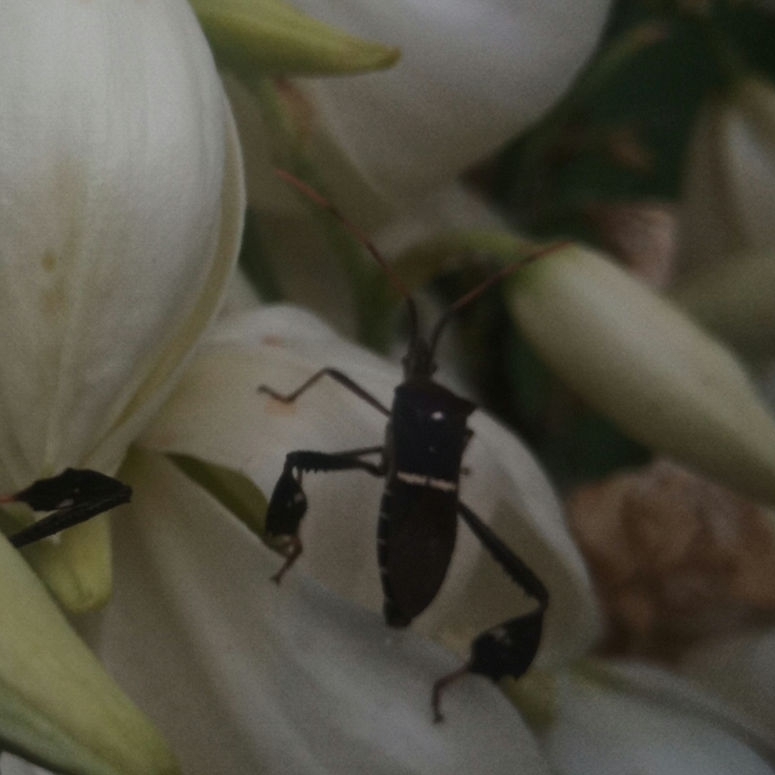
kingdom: Animalia
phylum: Arthropoda
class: Insecta
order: Hemiptera
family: Coreidae
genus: Leptoglossus
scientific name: Leptoglossus phyllopus
